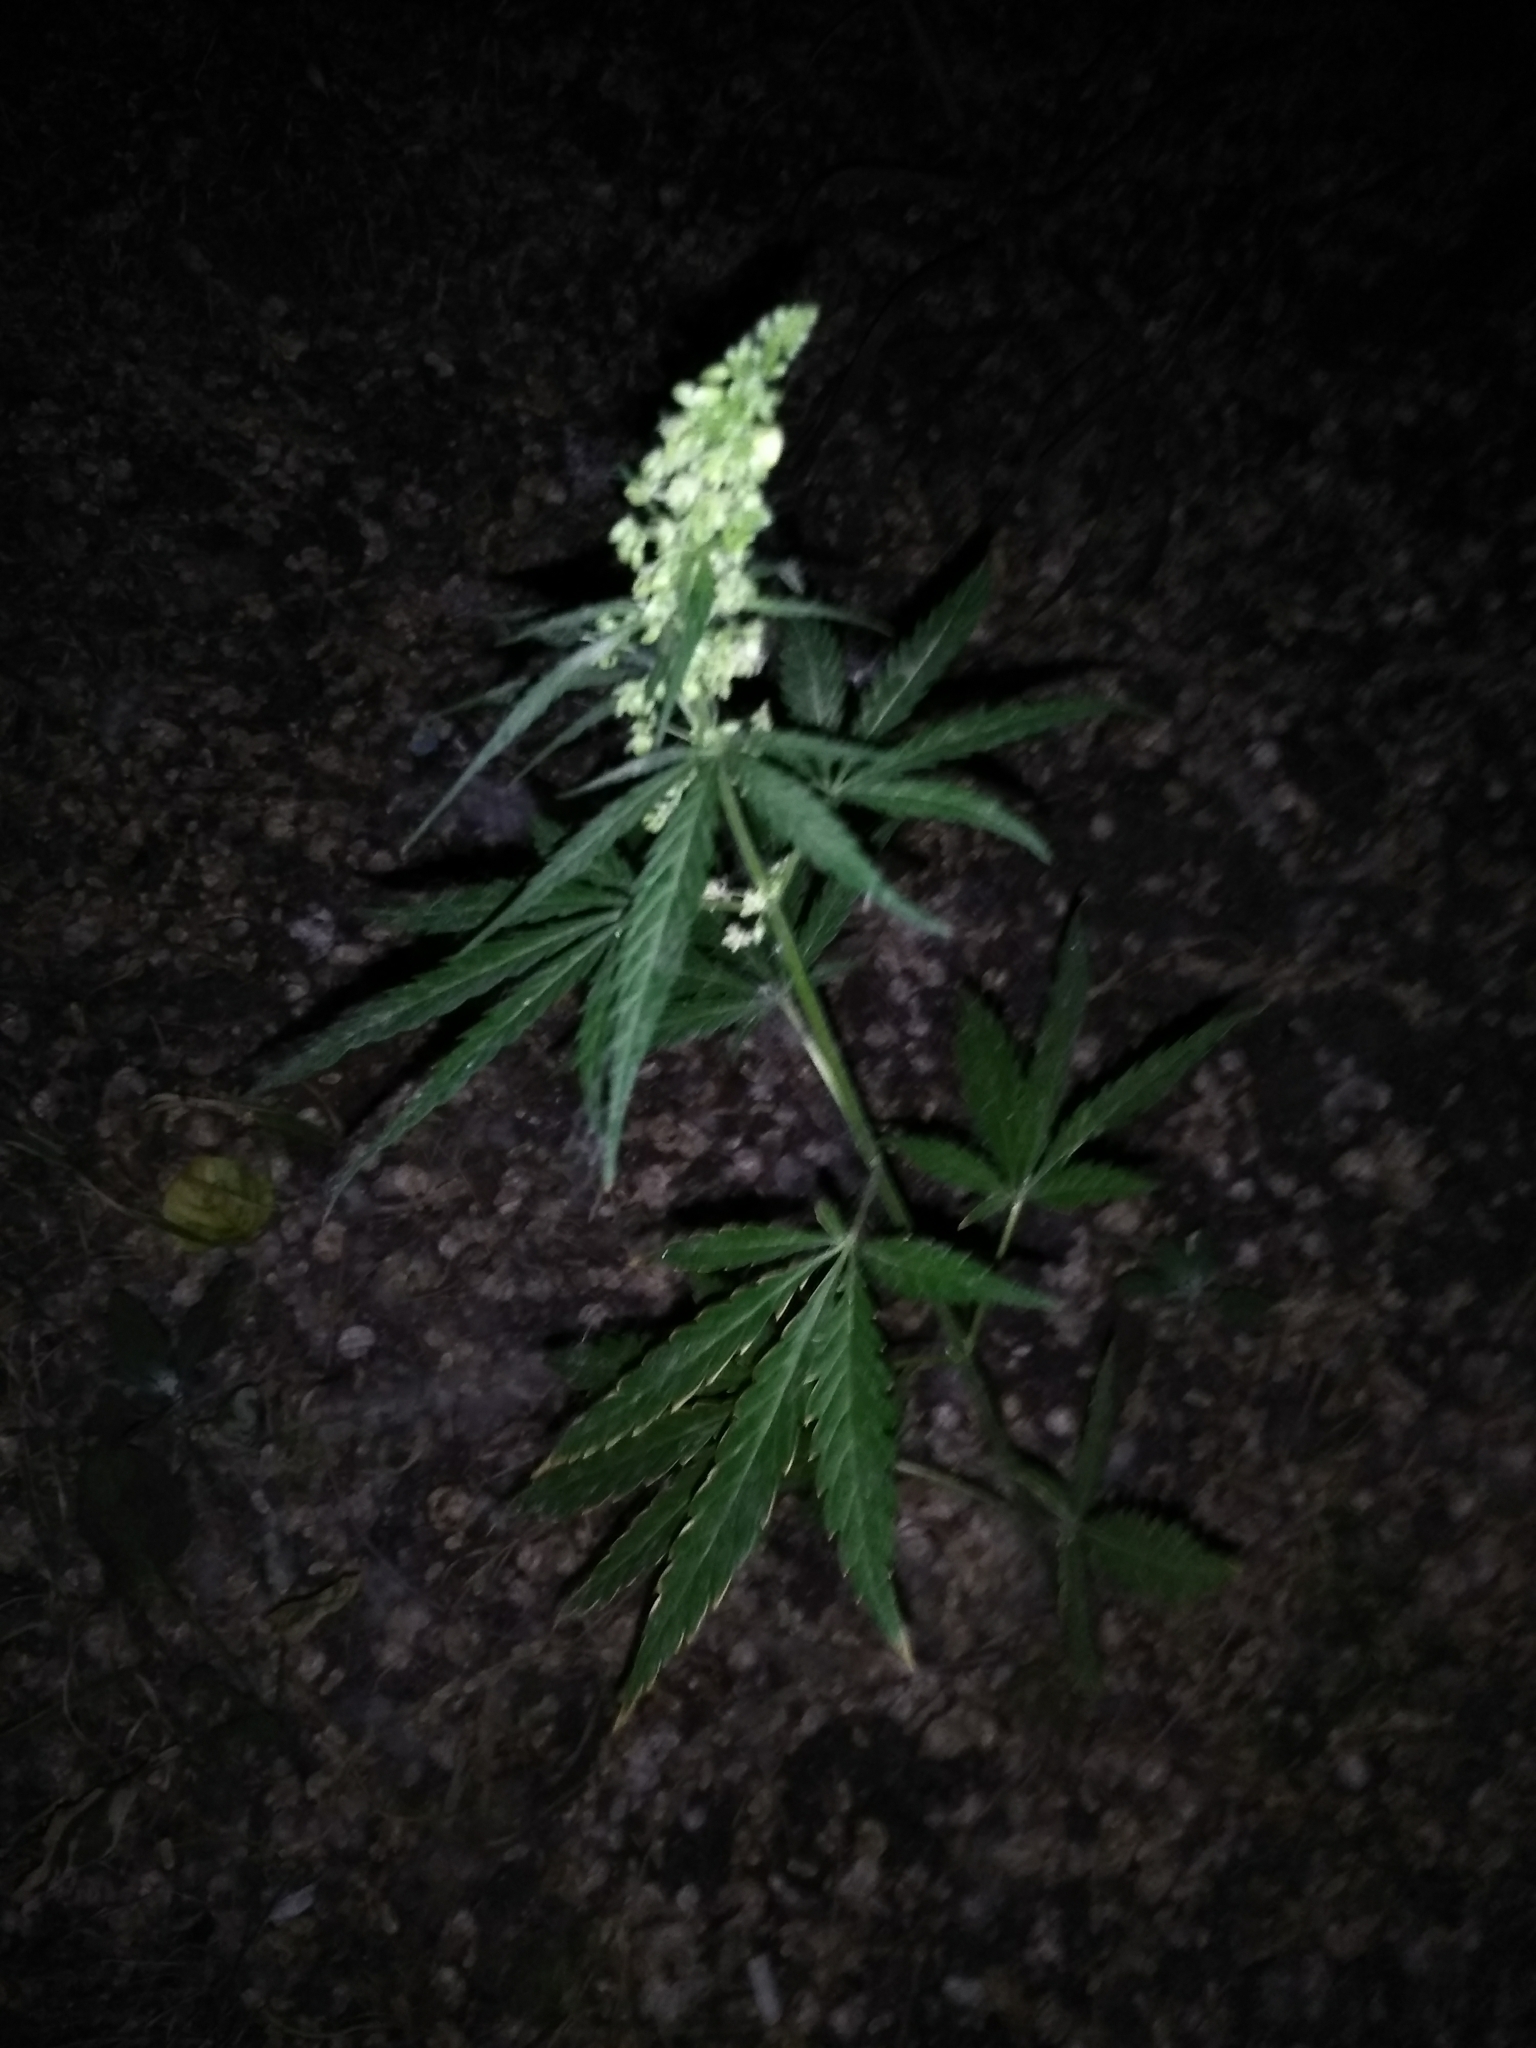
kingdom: Plantae
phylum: Tracheophyta
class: Magnoliopsida
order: Rosales
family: Cannabaceae
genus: Cannabis
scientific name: Cannabis sativa
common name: Hemp
